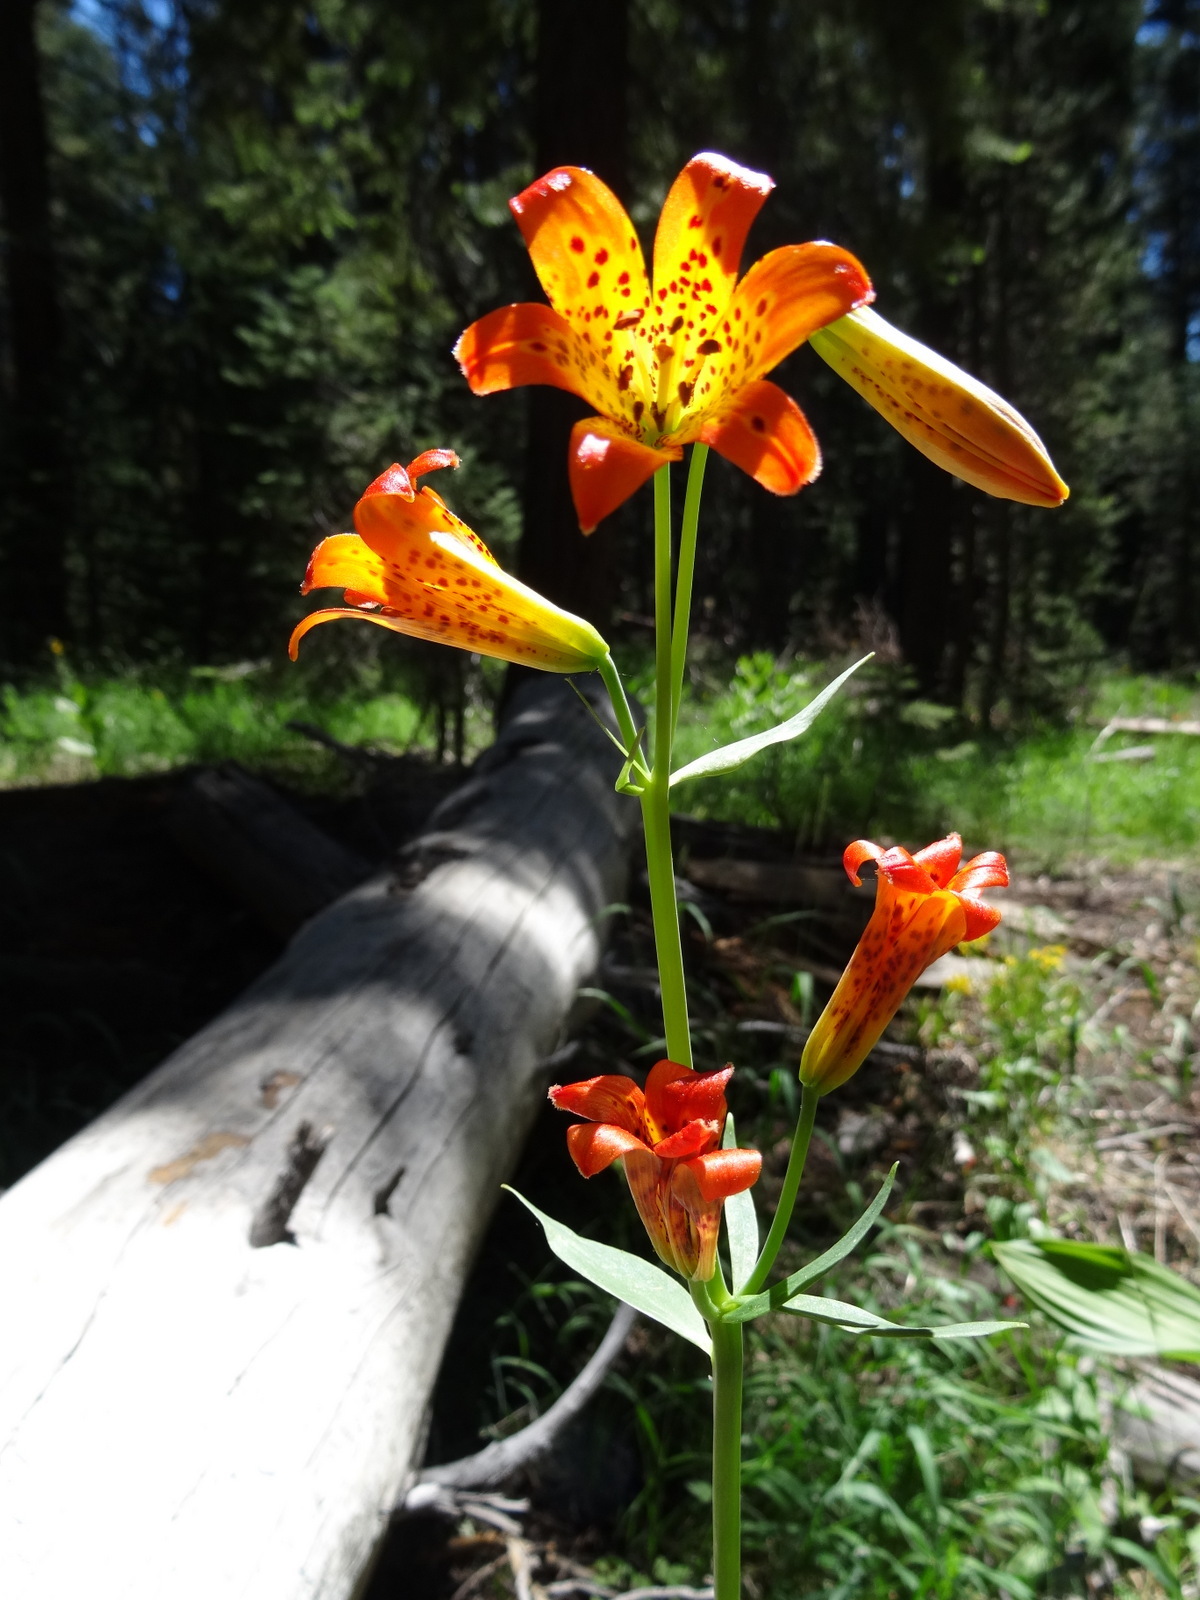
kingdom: Plantae
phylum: Tracheophyta
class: Liliopsida
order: Liliales
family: Liliaceae
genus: Lilium
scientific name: Lilium parvum
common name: Alpine lily
